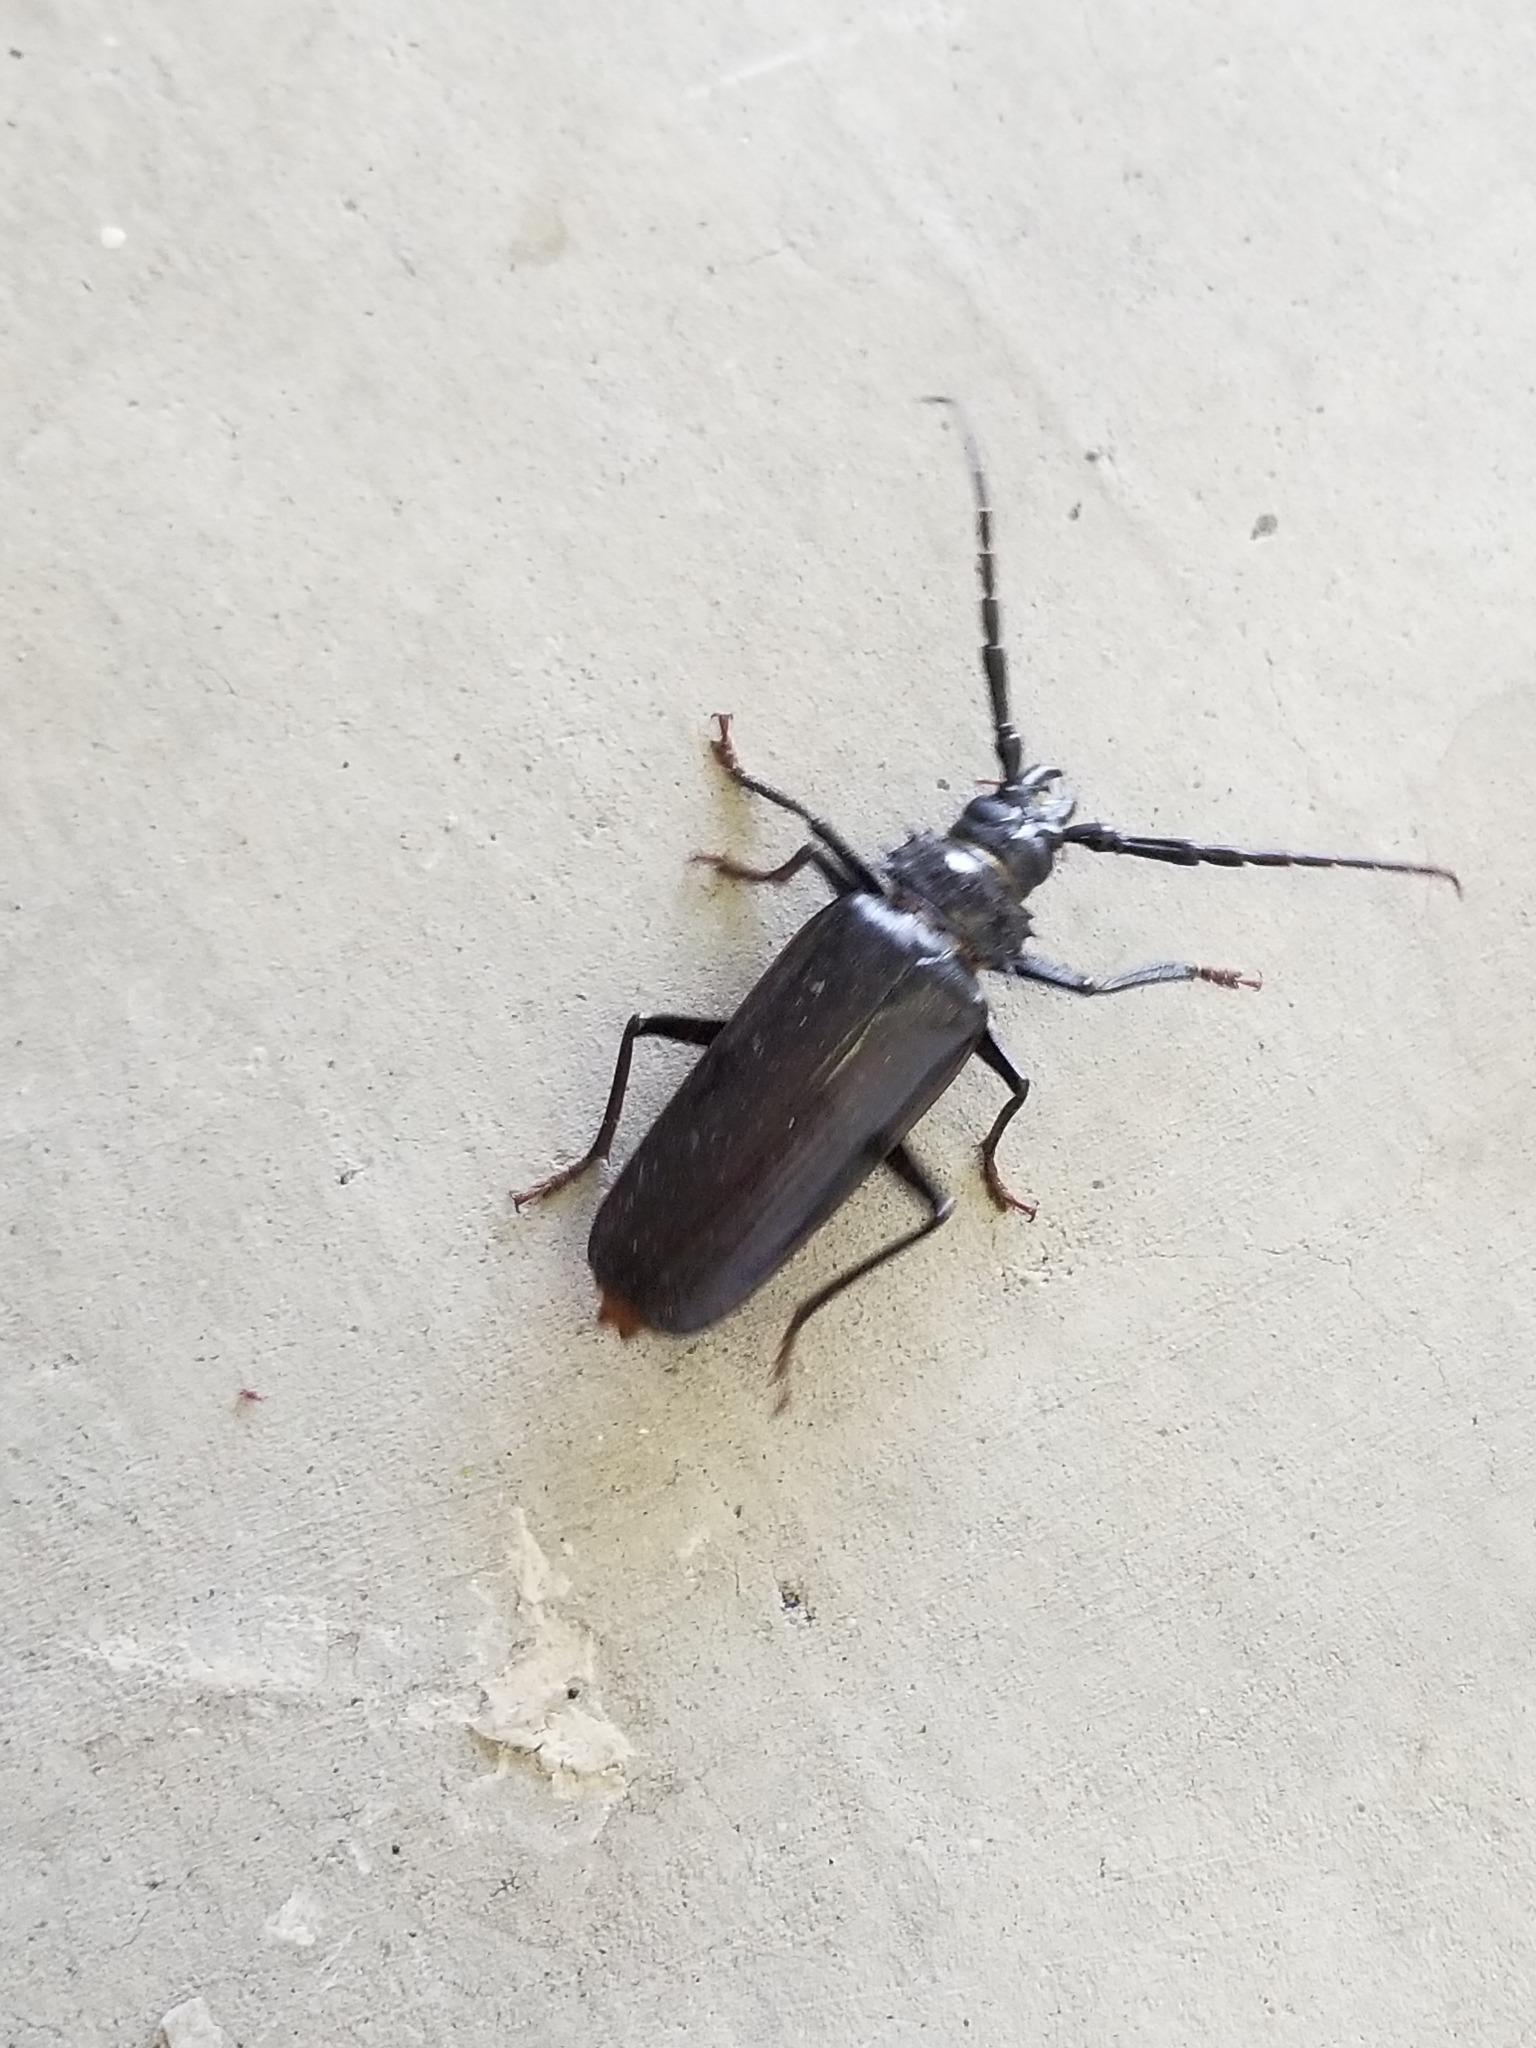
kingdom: Animalia
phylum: Arthropoda
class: Insecta
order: Coleoptera
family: Cerambycidae
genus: Derobrachus
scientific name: Derobrachus hovorei
